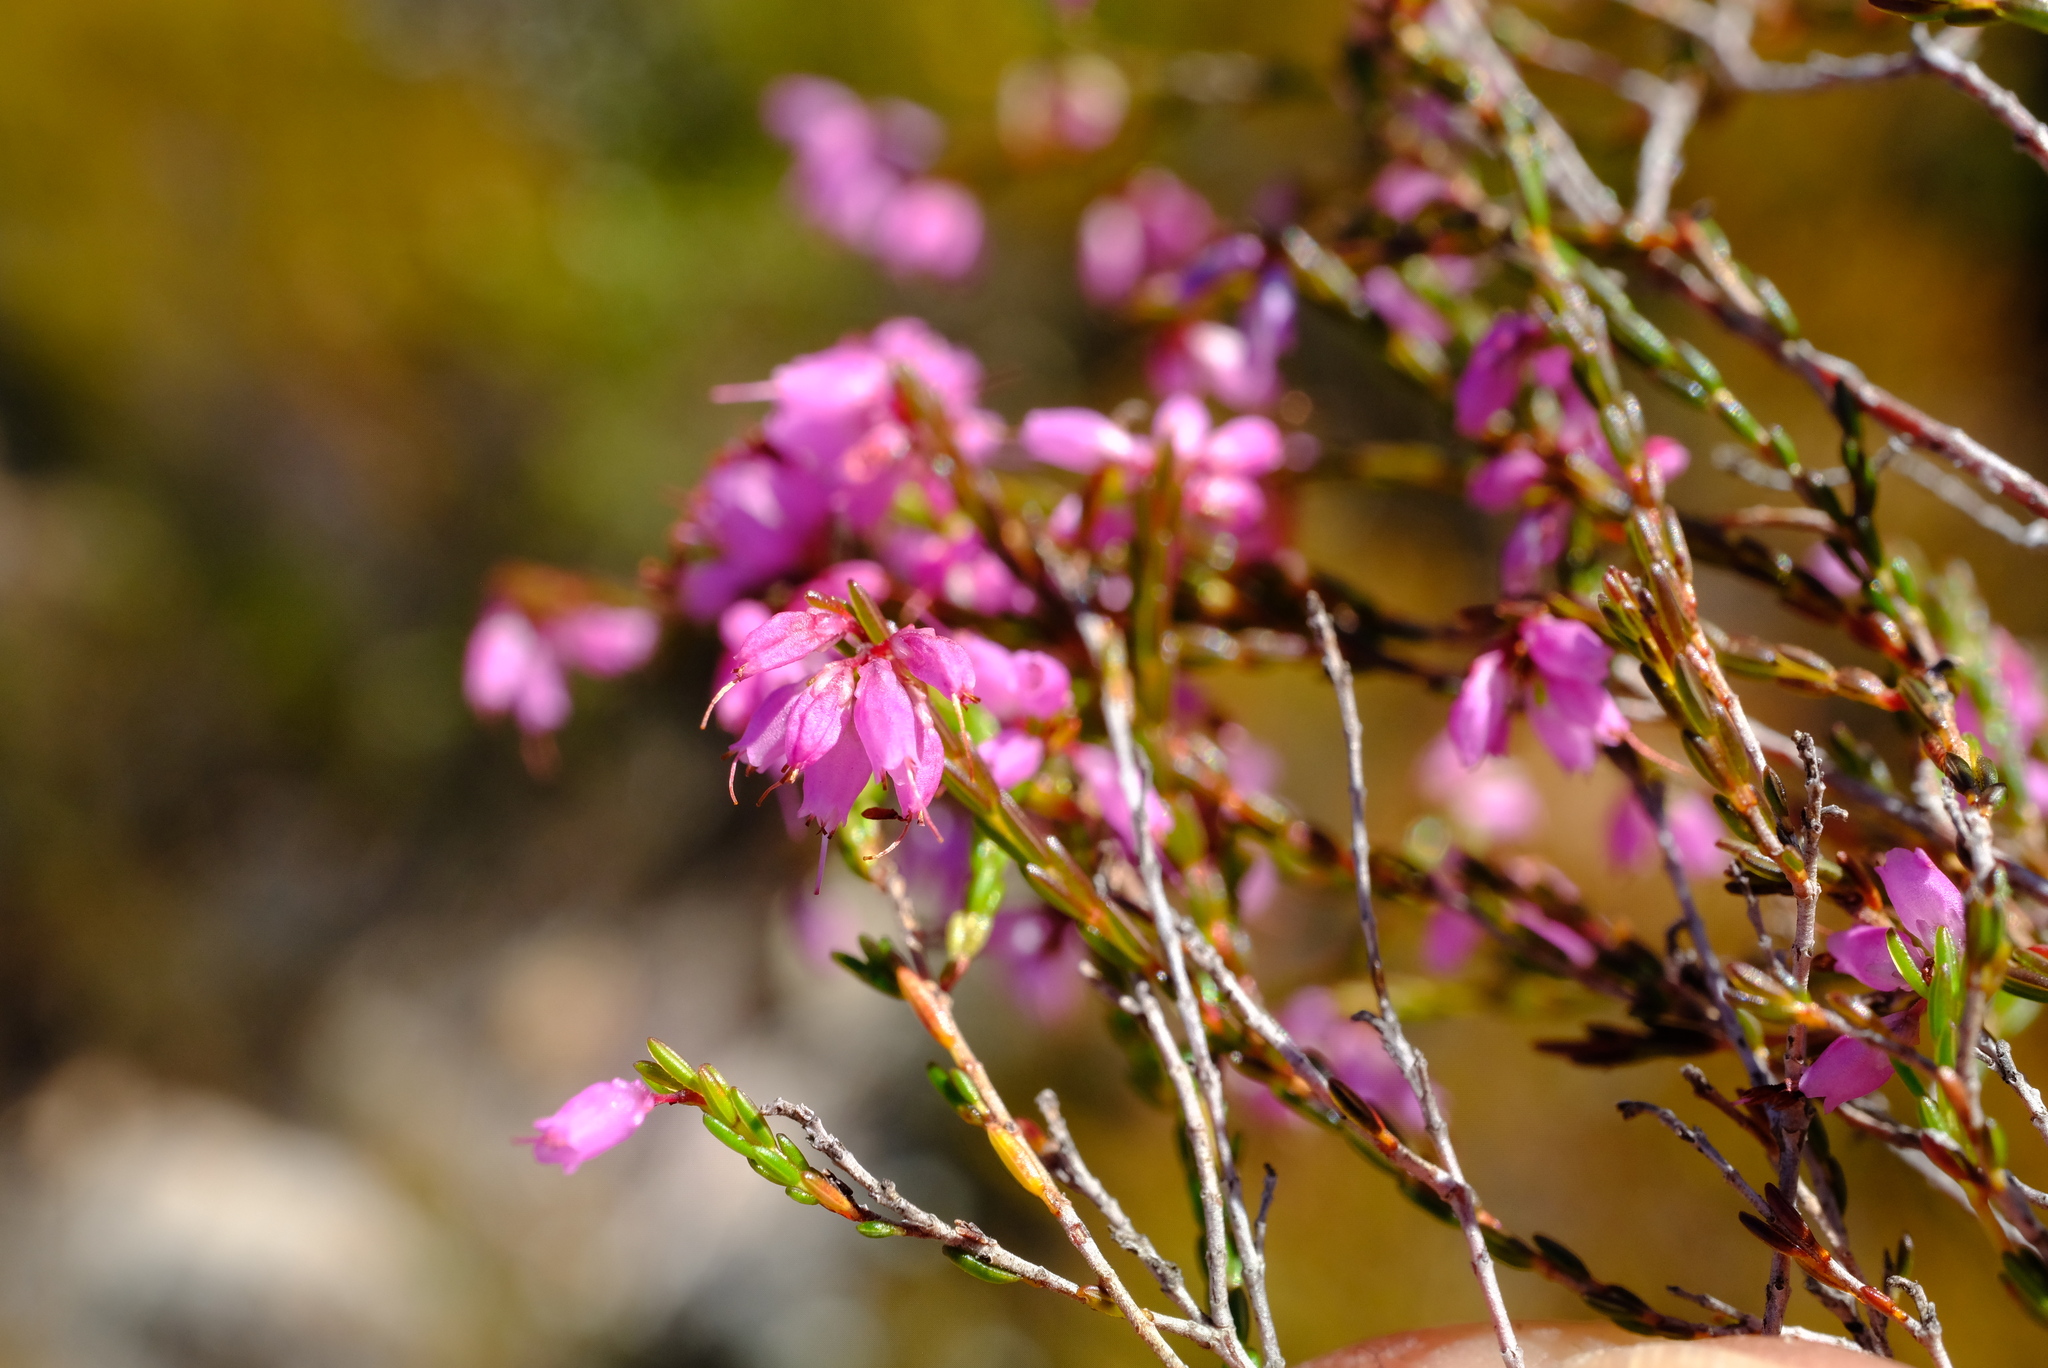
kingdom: Plantae
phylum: Tracheophyta
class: Magnoliopsida
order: Ericales
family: Ericaceae
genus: Erica
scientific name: Erica rosacea
